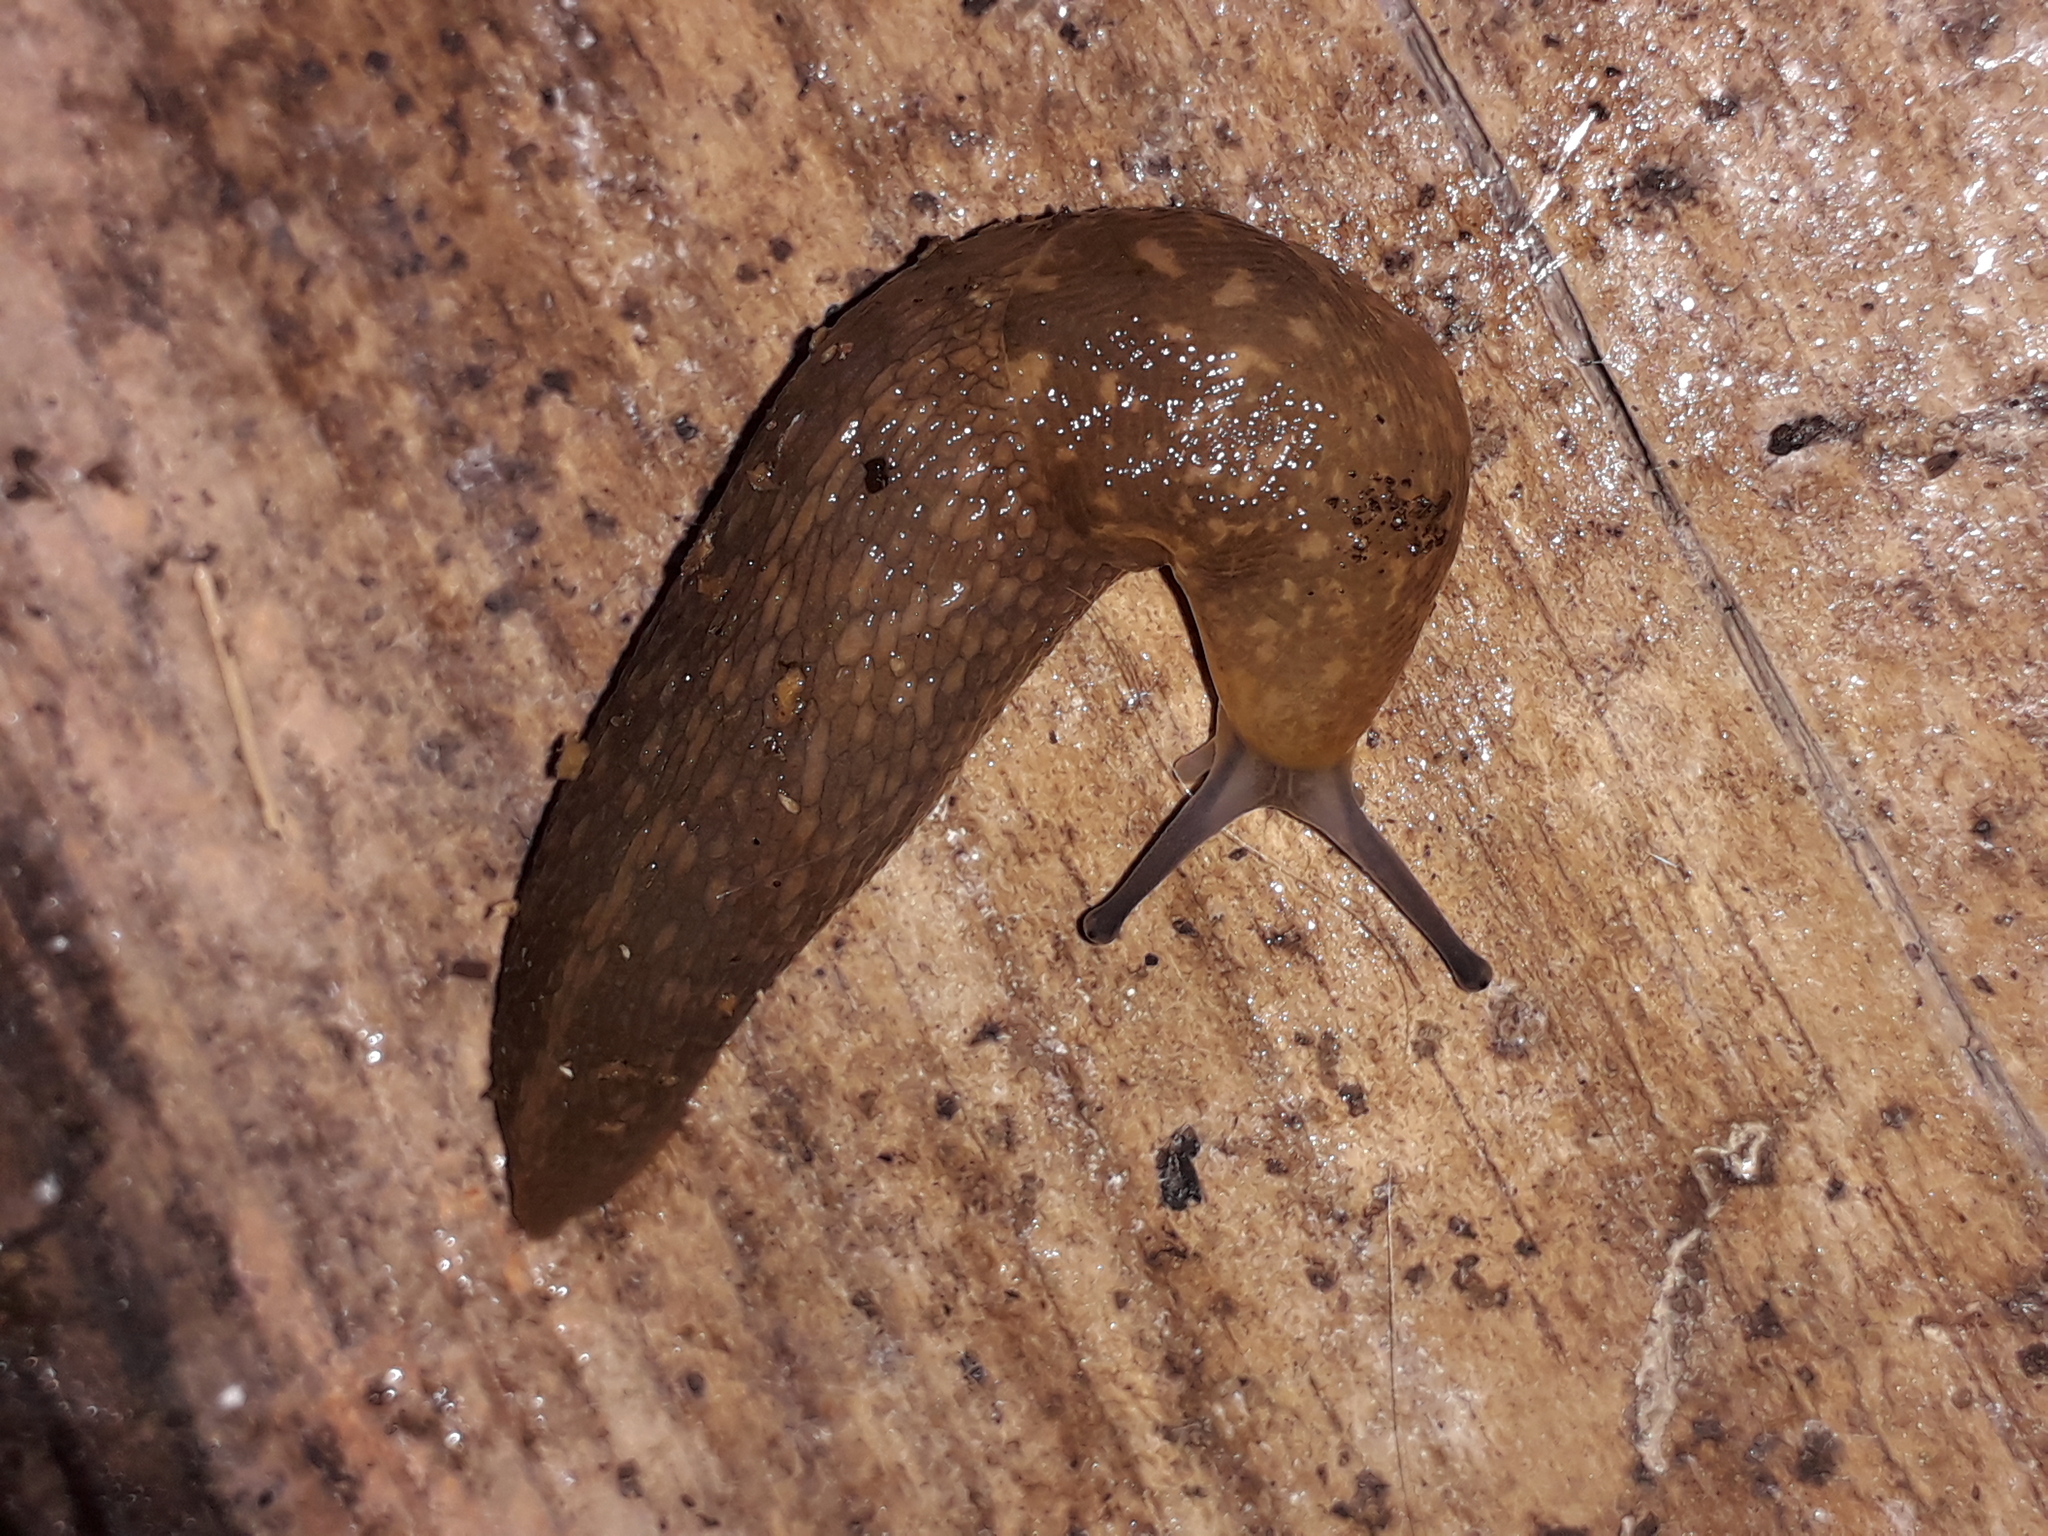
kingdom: Animalia
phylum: Mollusca
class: Gastropoda
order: Stylommatophora
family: Limacidae
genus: Limacus
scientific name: Limacus flavus
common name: Yellow gardenslug
